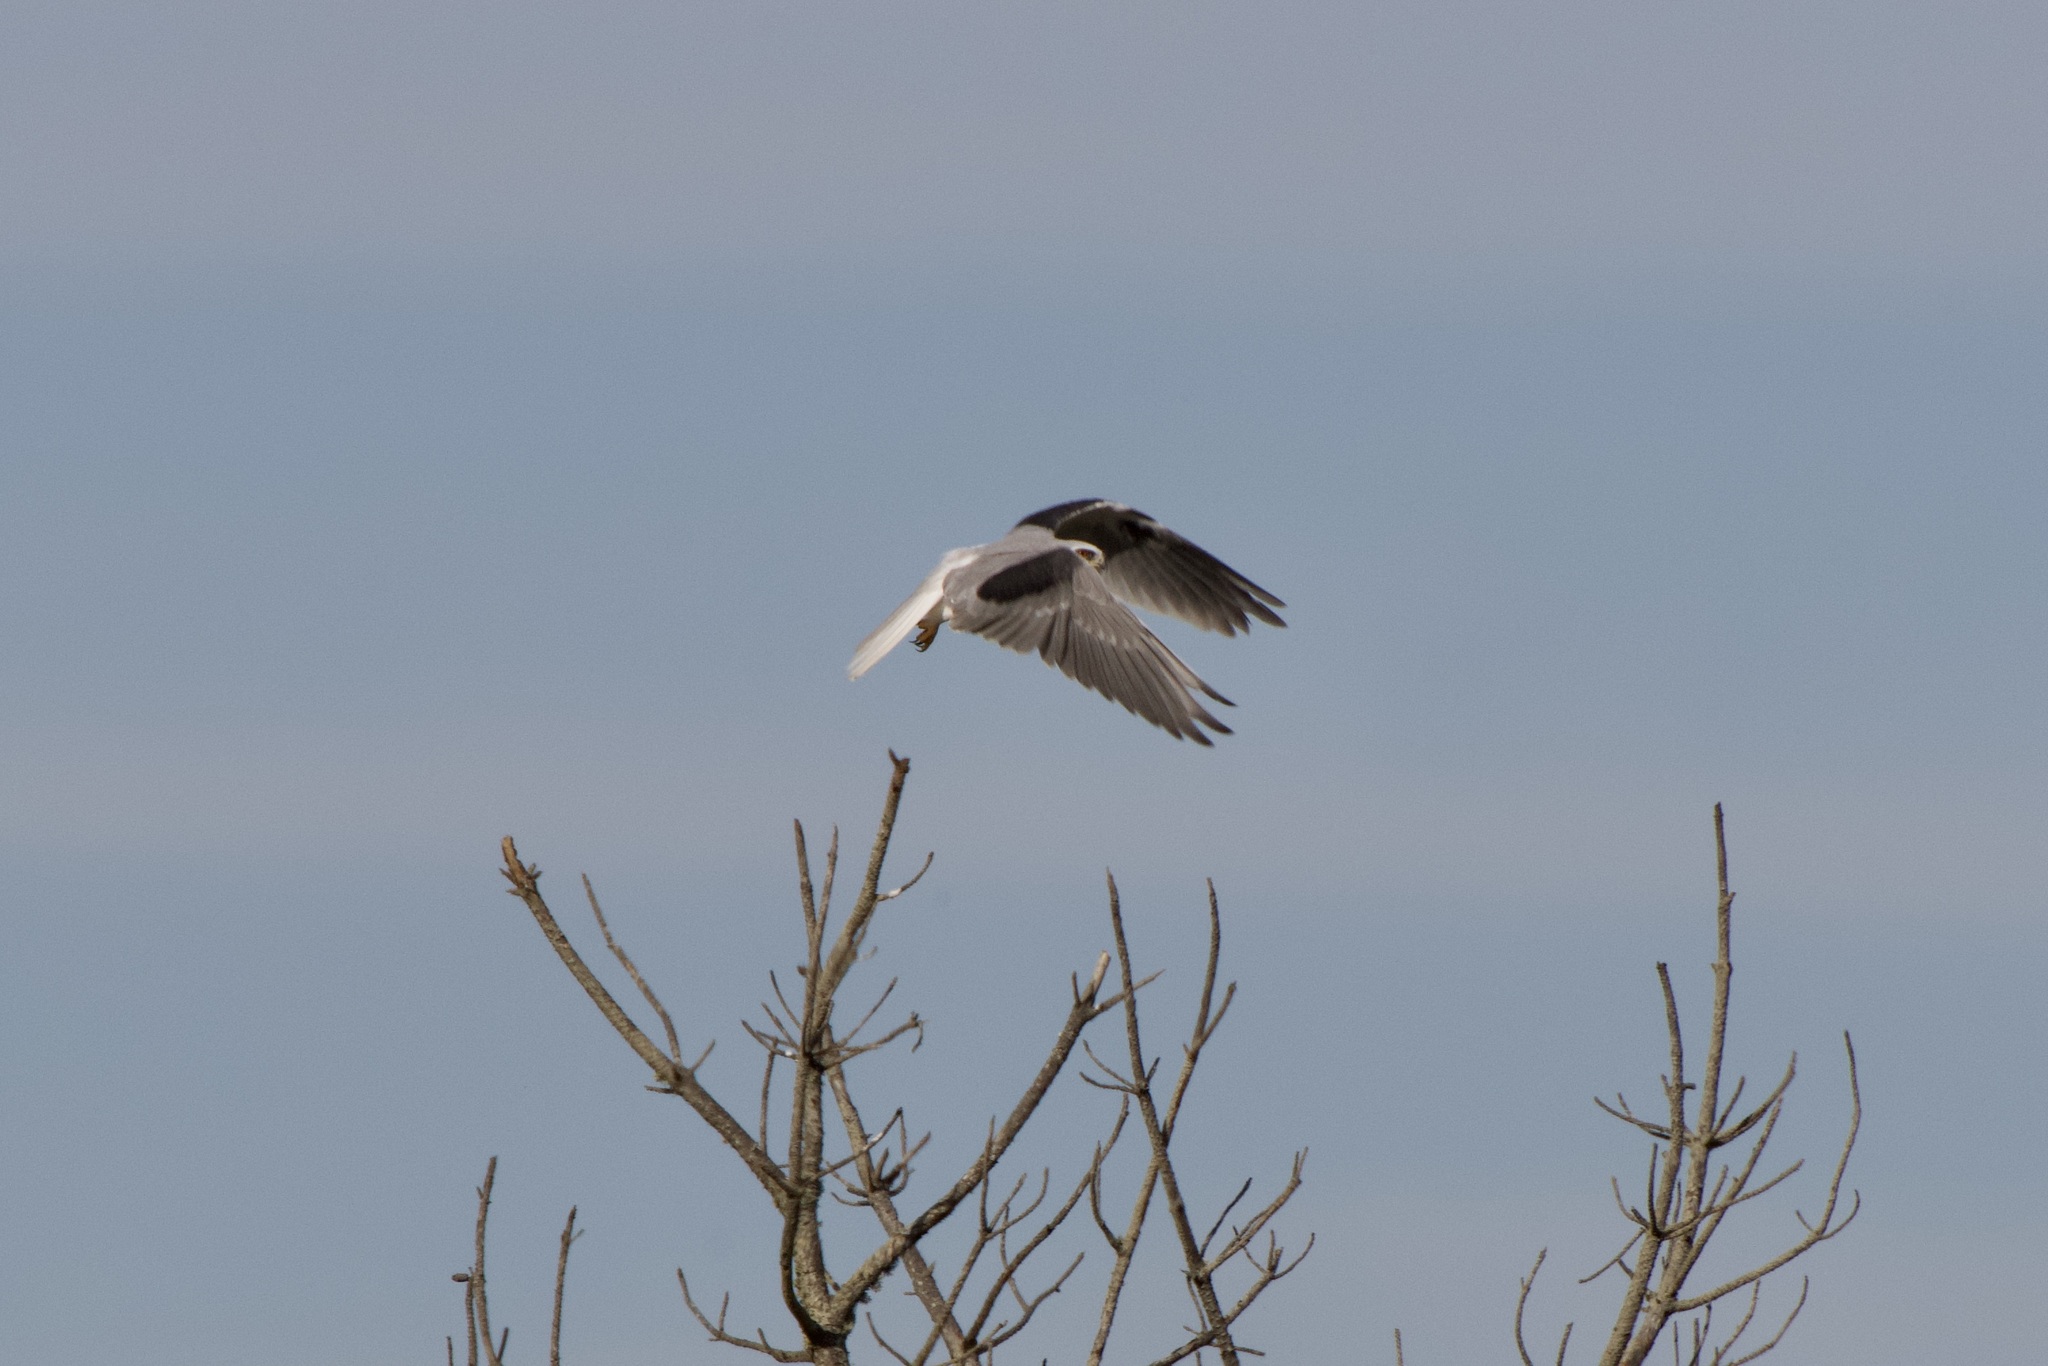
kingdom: Animalia
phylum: Chordata
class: Aves
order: Accipitriformes
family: Accipitridae
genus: Elanus
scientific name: Elanus leucurus
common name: White-tailed kite
